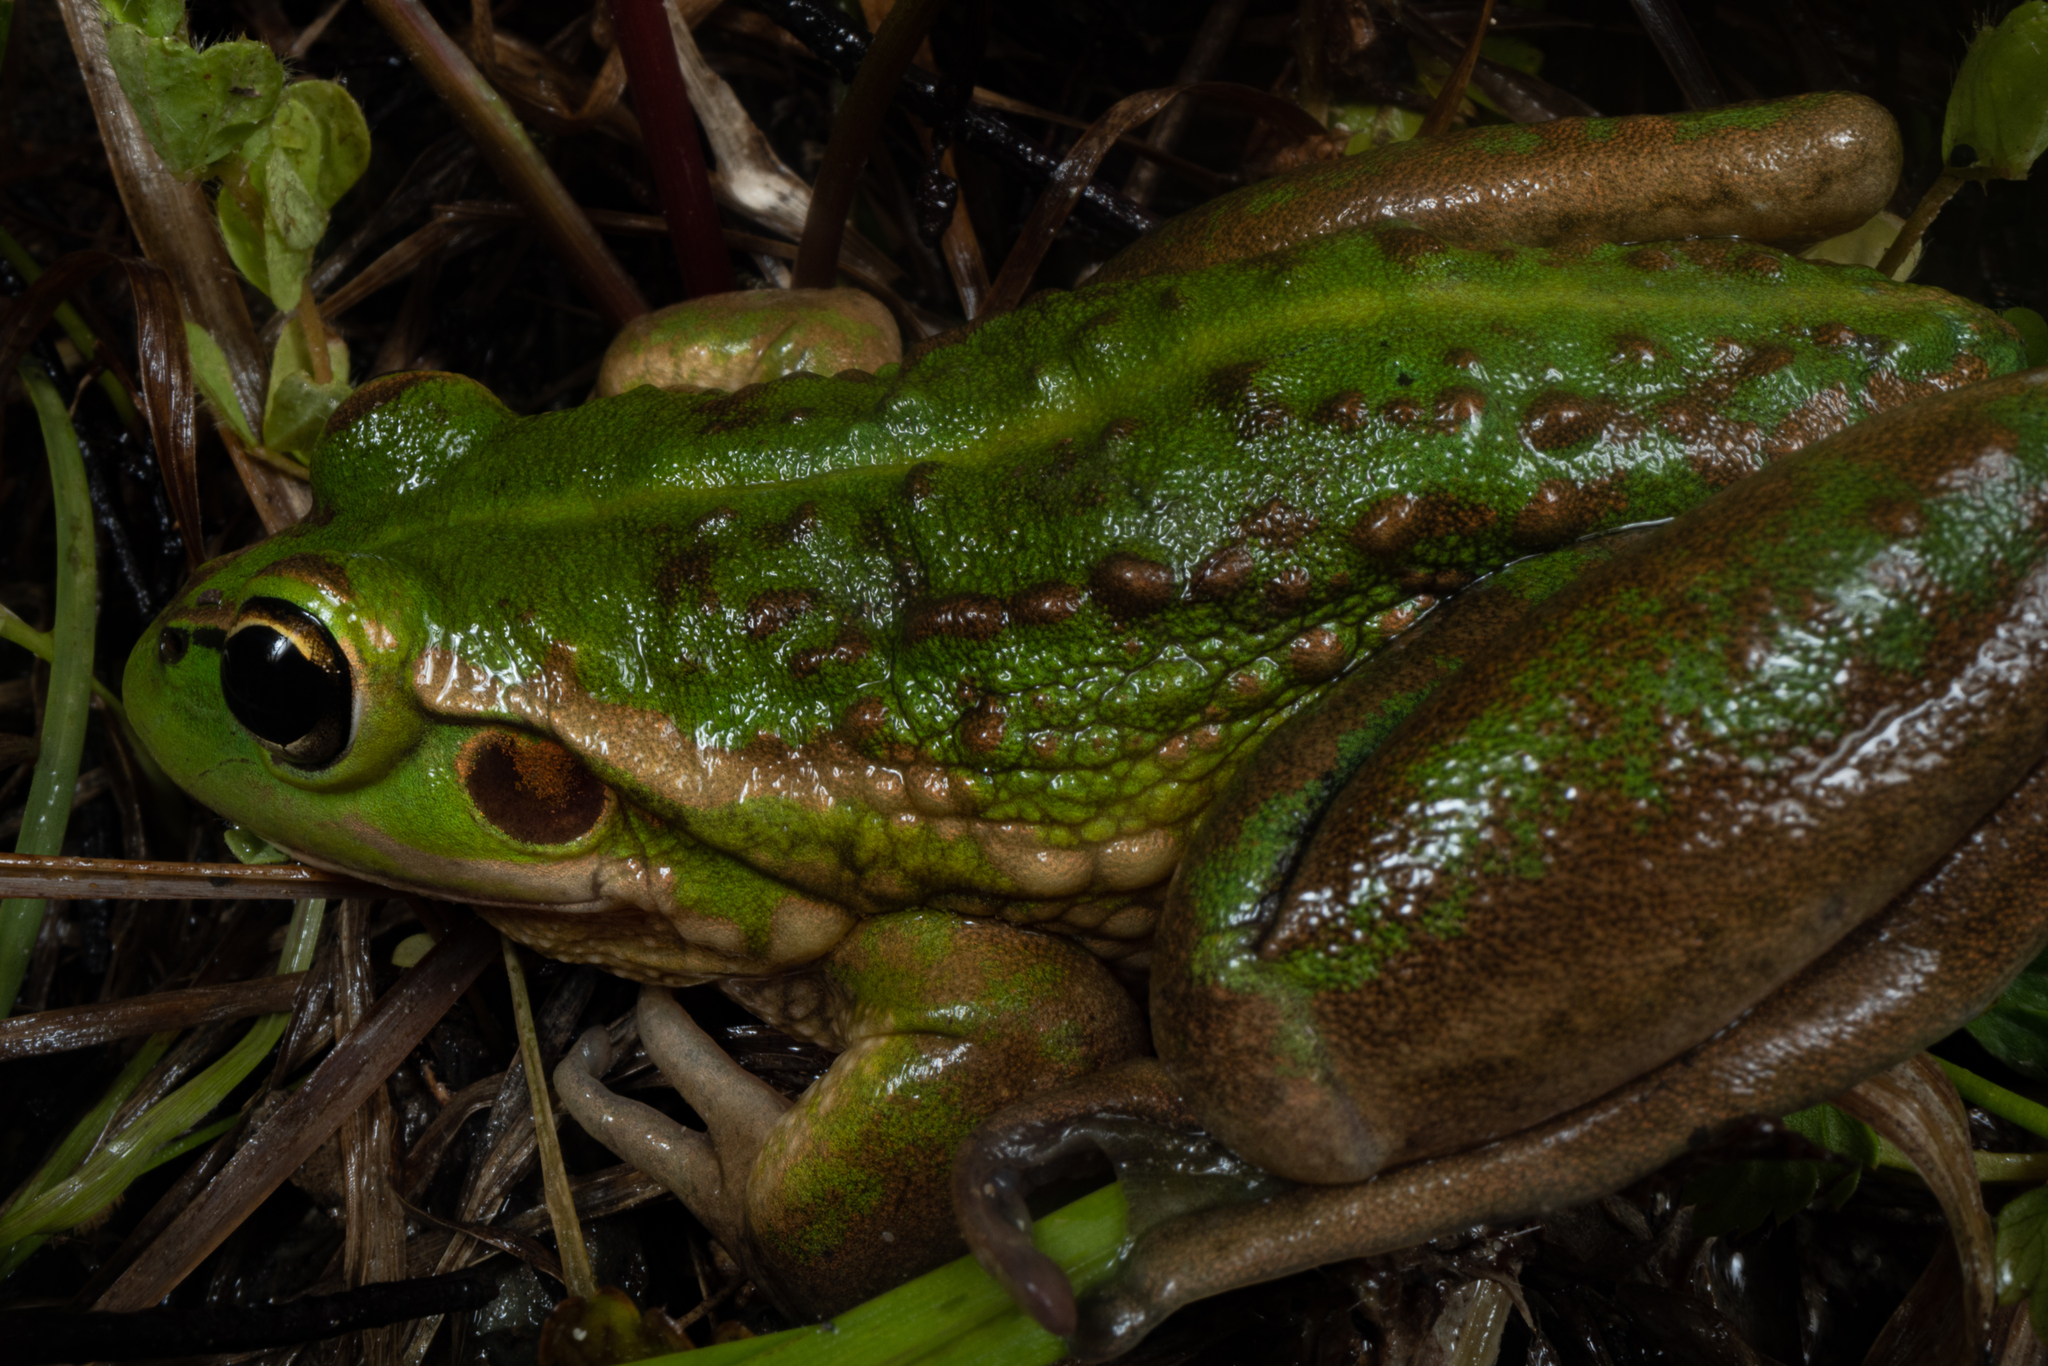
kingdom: Animalia
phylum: Chordata
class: Amphibia
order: Anura
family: Pelodryadidae
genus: Ranoidea
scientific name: Ranoidea raniformis
